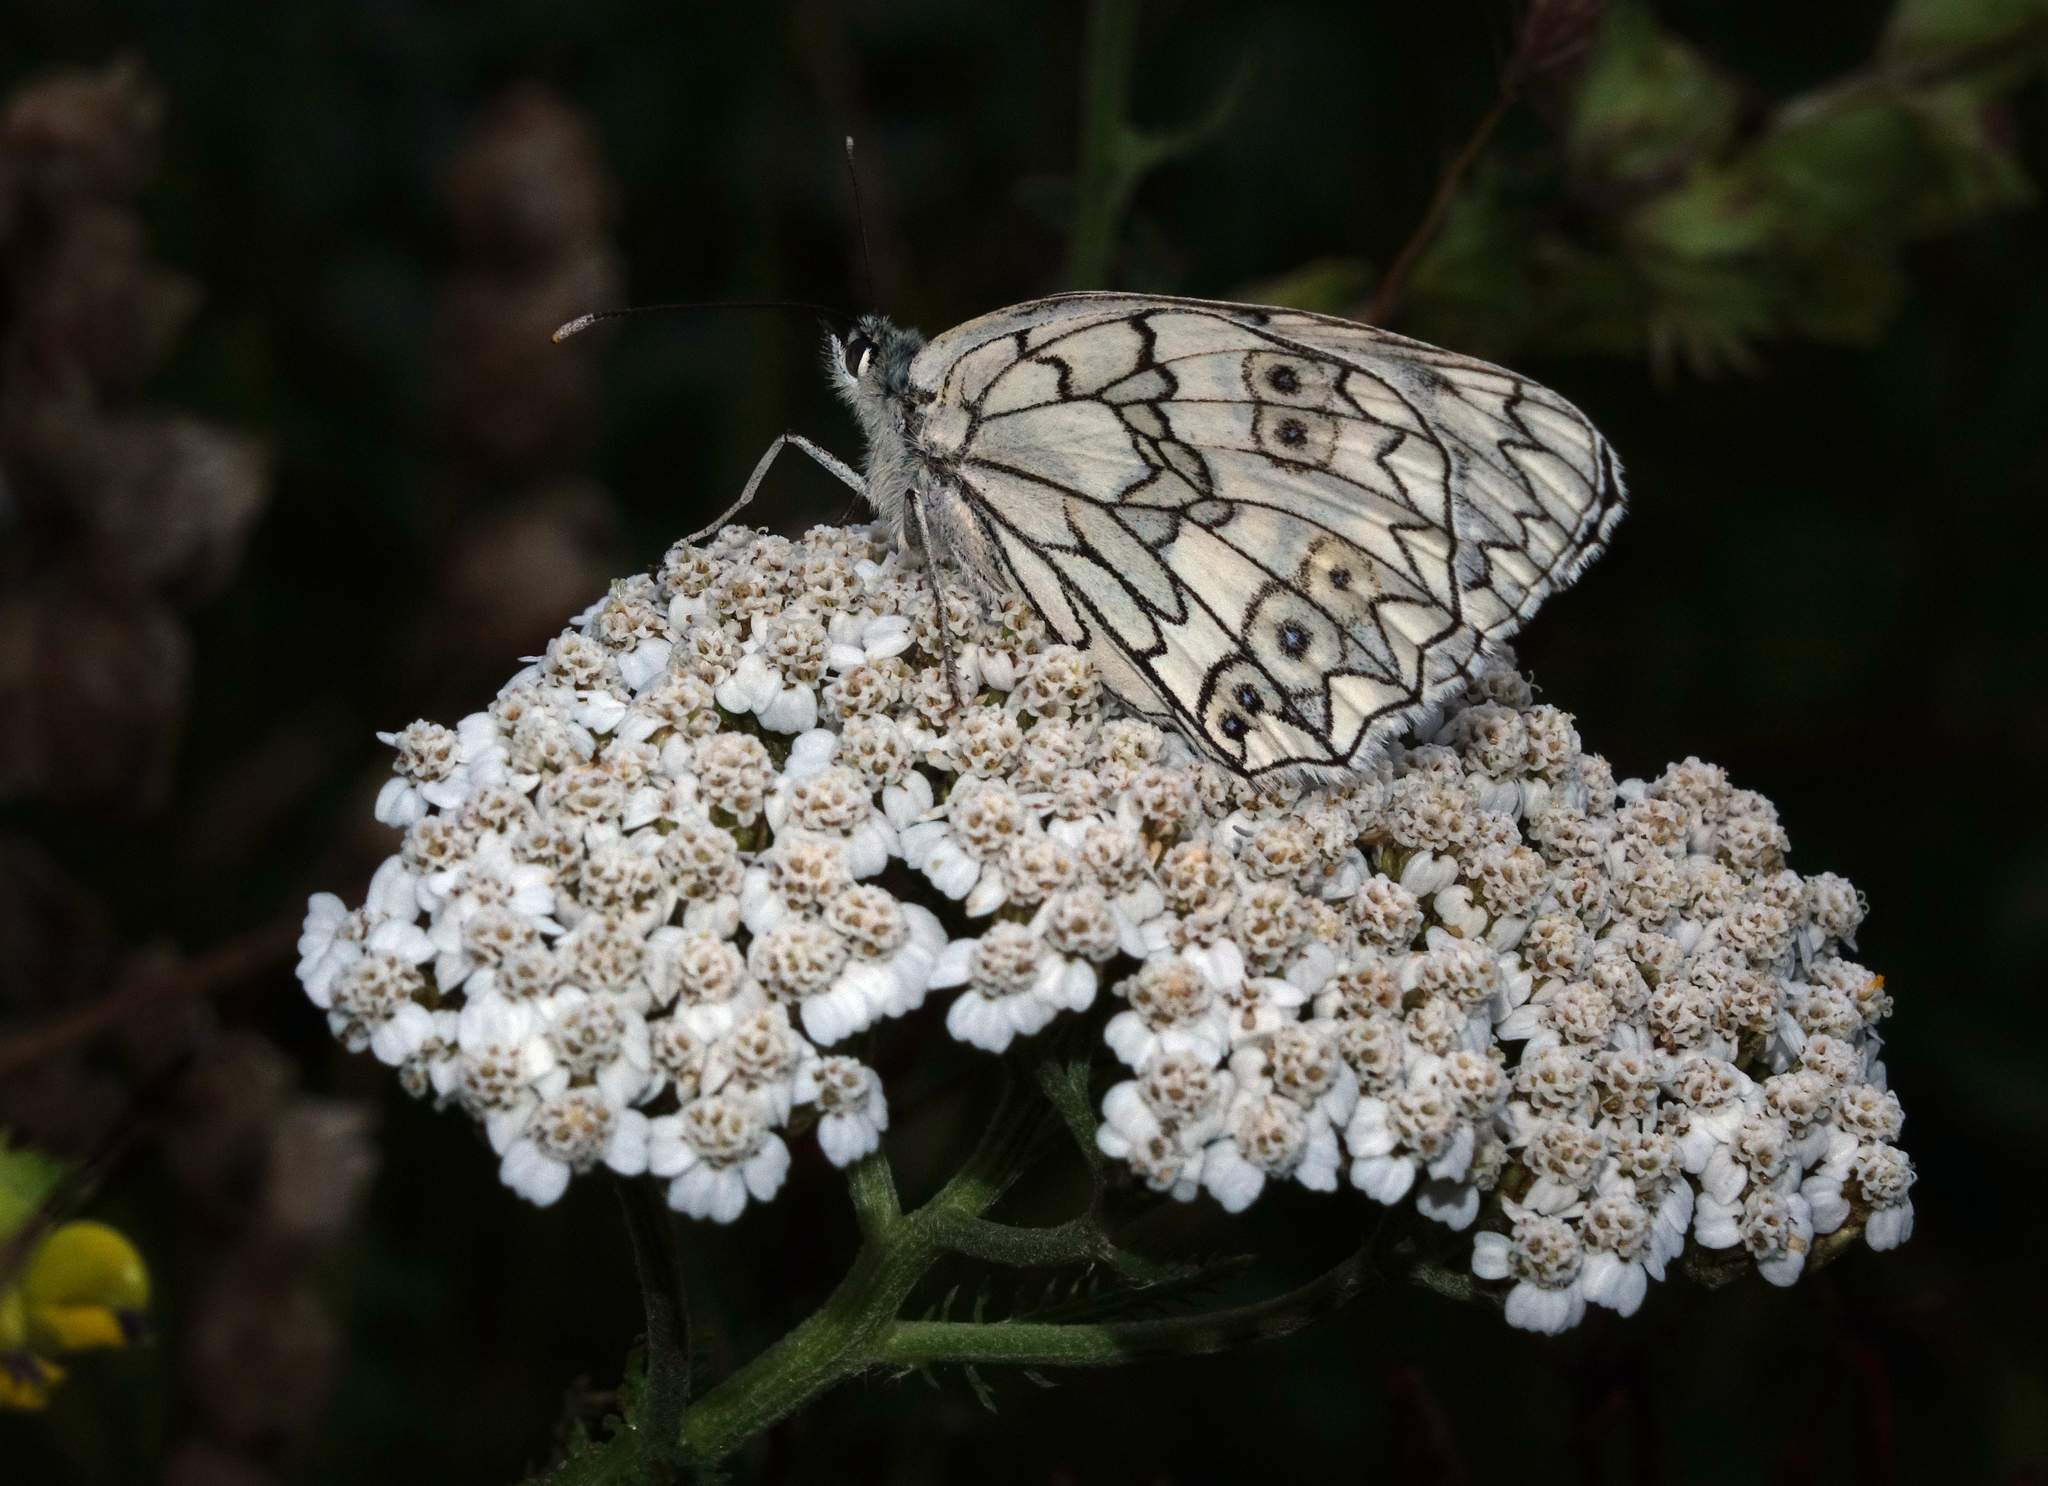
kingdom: Animalia
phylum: Arthropoda
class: Insecta
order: Lepidoptera
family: Nymphalidae
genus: Melanargia
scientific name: Melanargia japygia
